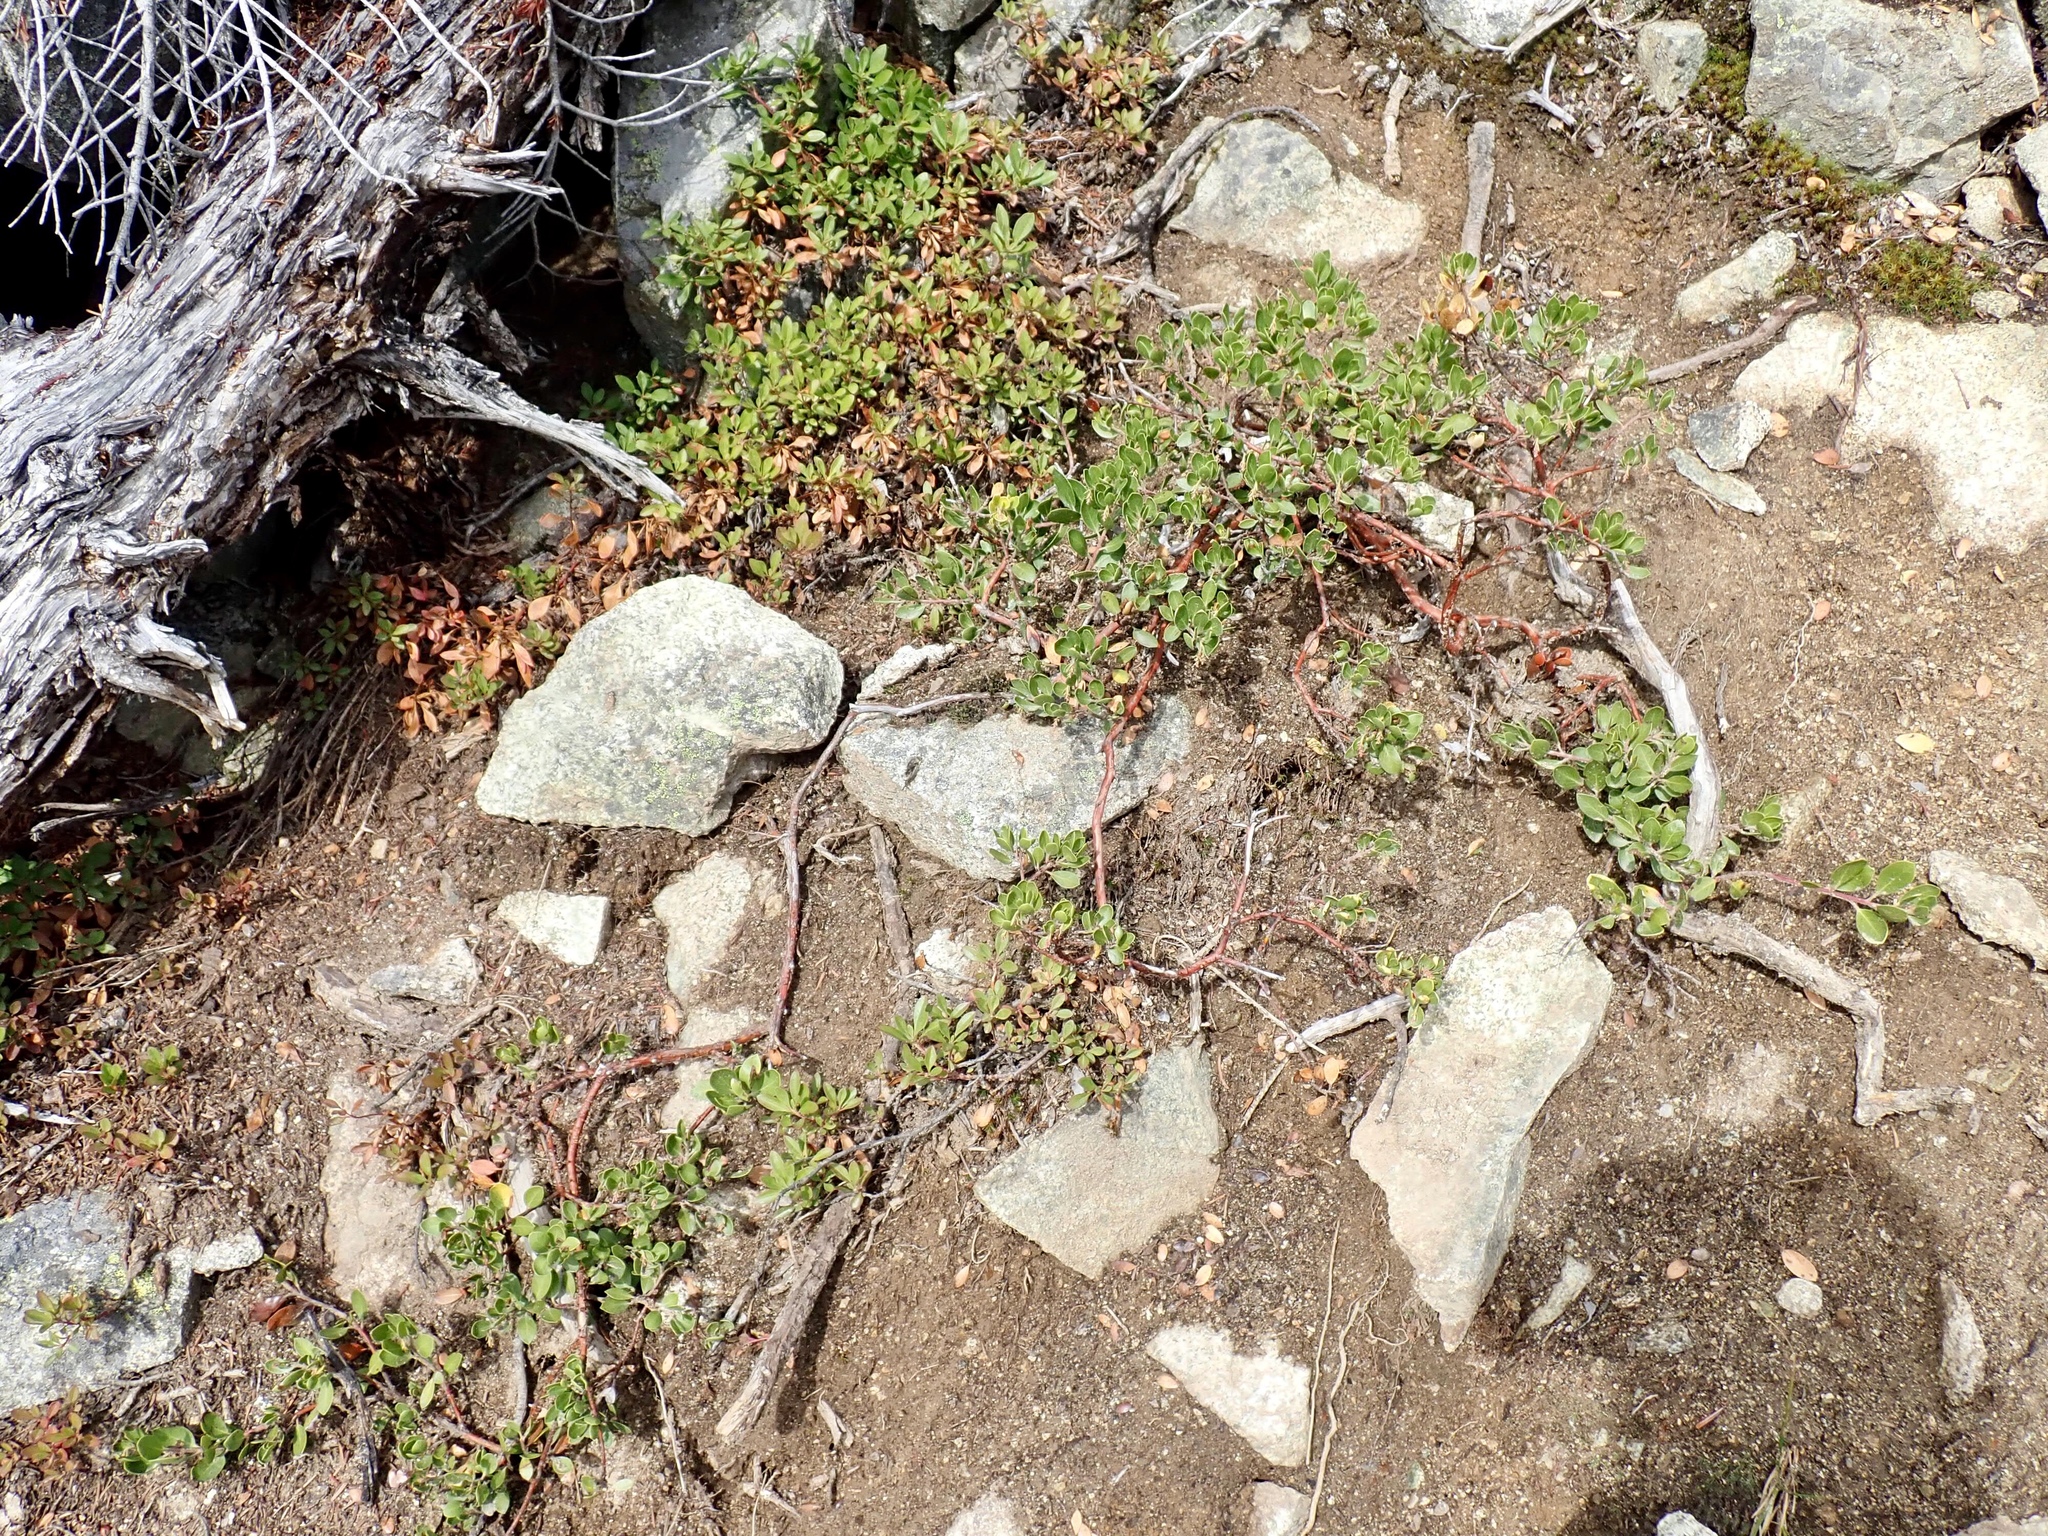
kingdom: Plantae
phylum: Tracheophyta
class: Magnoliopsida
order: Ericales
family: Ericaceae
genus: Arctostaphylos
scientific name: Arctostaphylos nevadensis
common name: Pinemat manzanita
